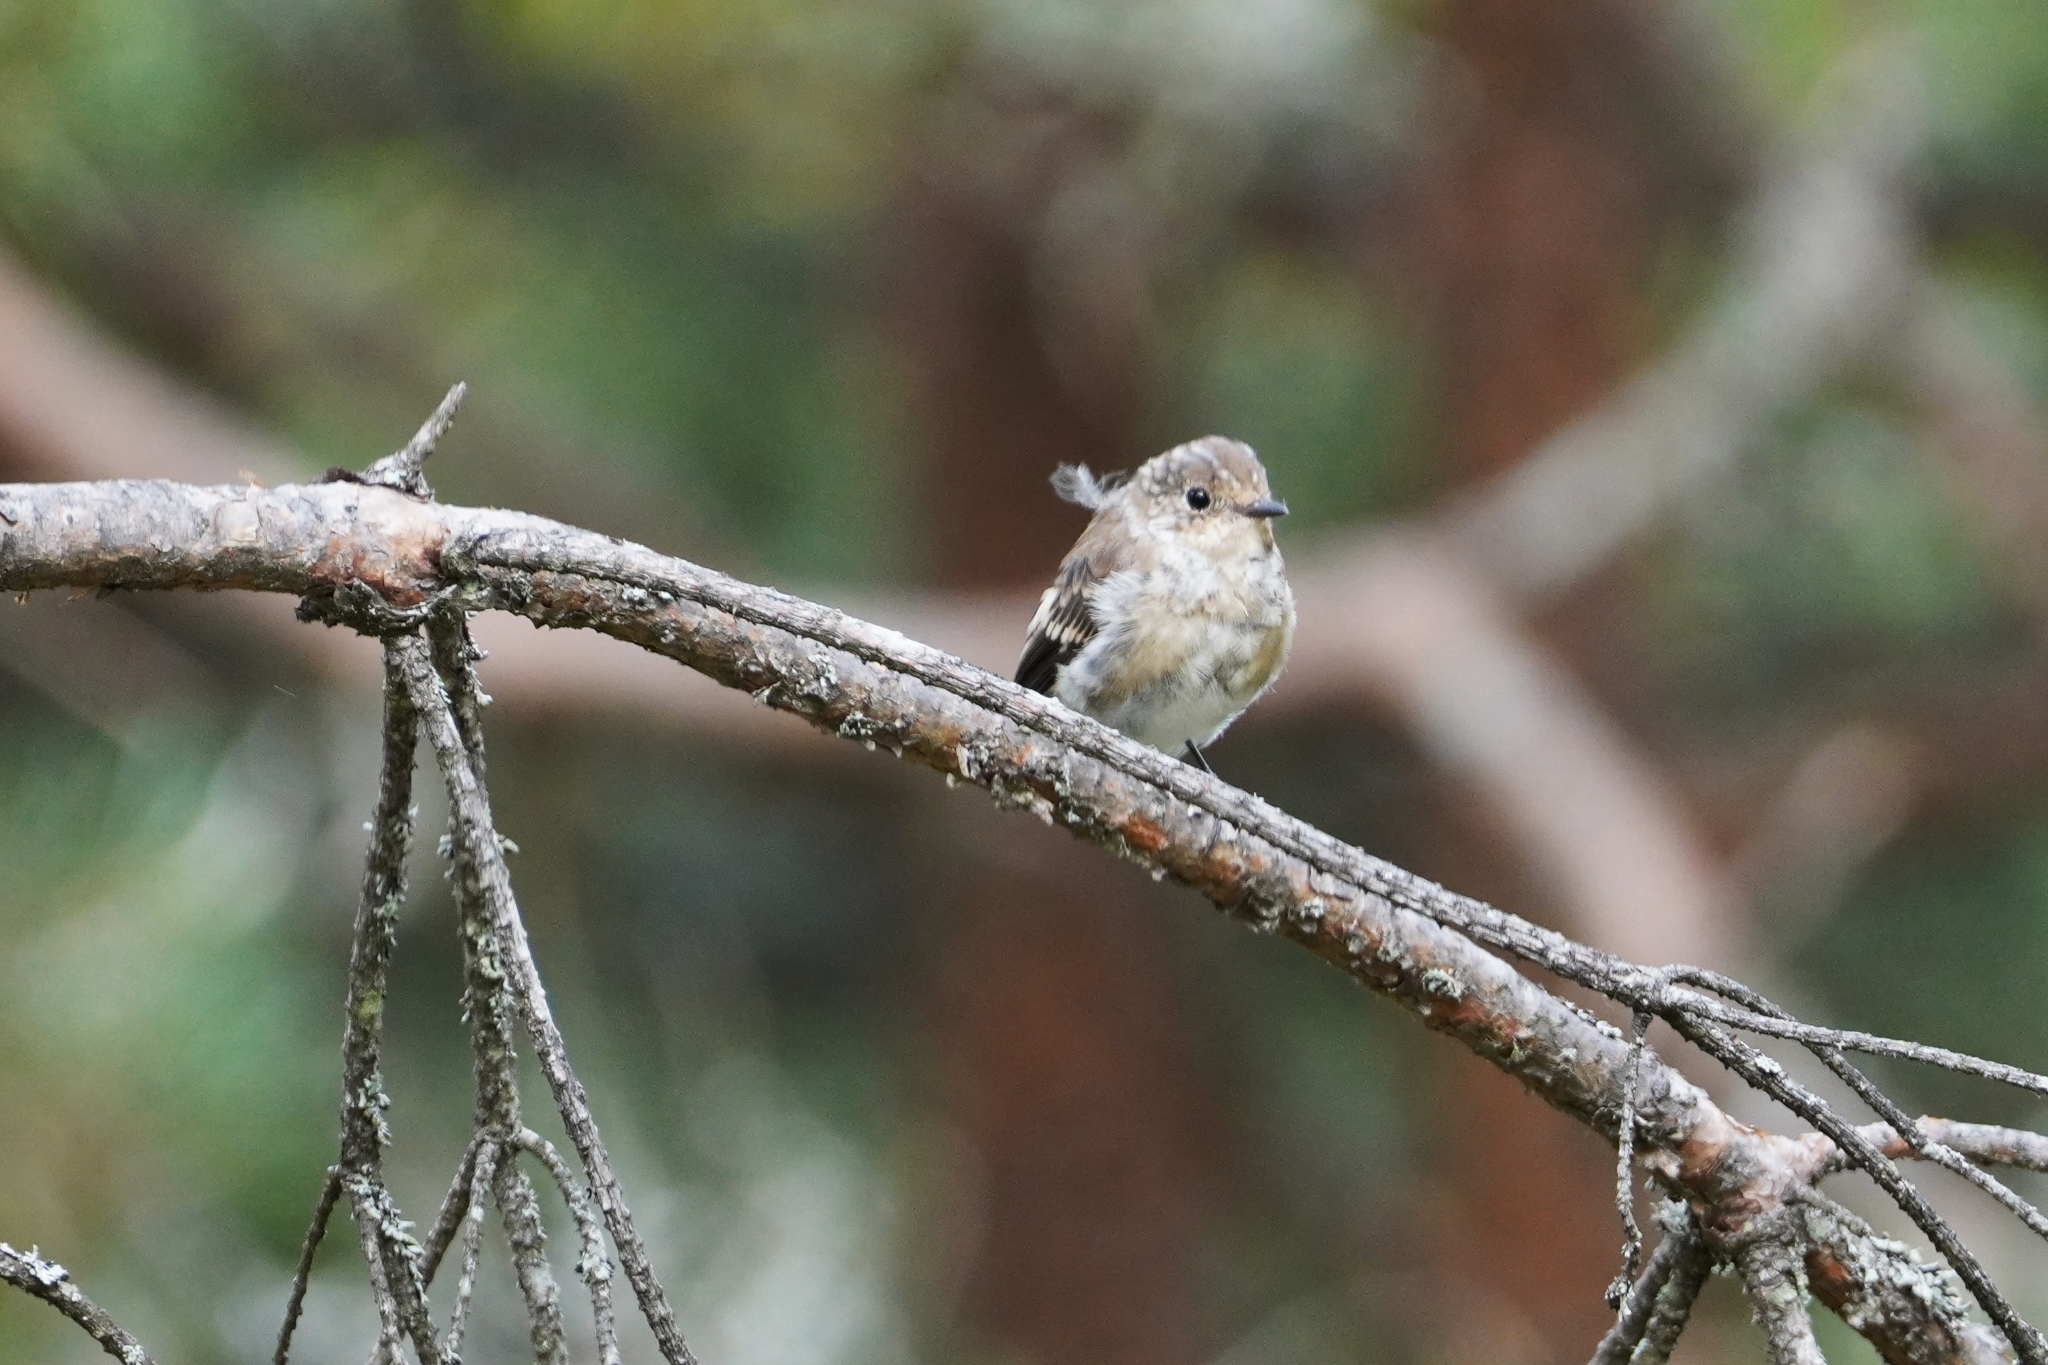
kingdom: Animalia
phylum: Chordata
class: Aves
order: Passeriformes
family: Muscicapidae
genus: Ficedula
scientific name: Ficedula hypoleuca
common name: European pied flycatcher
